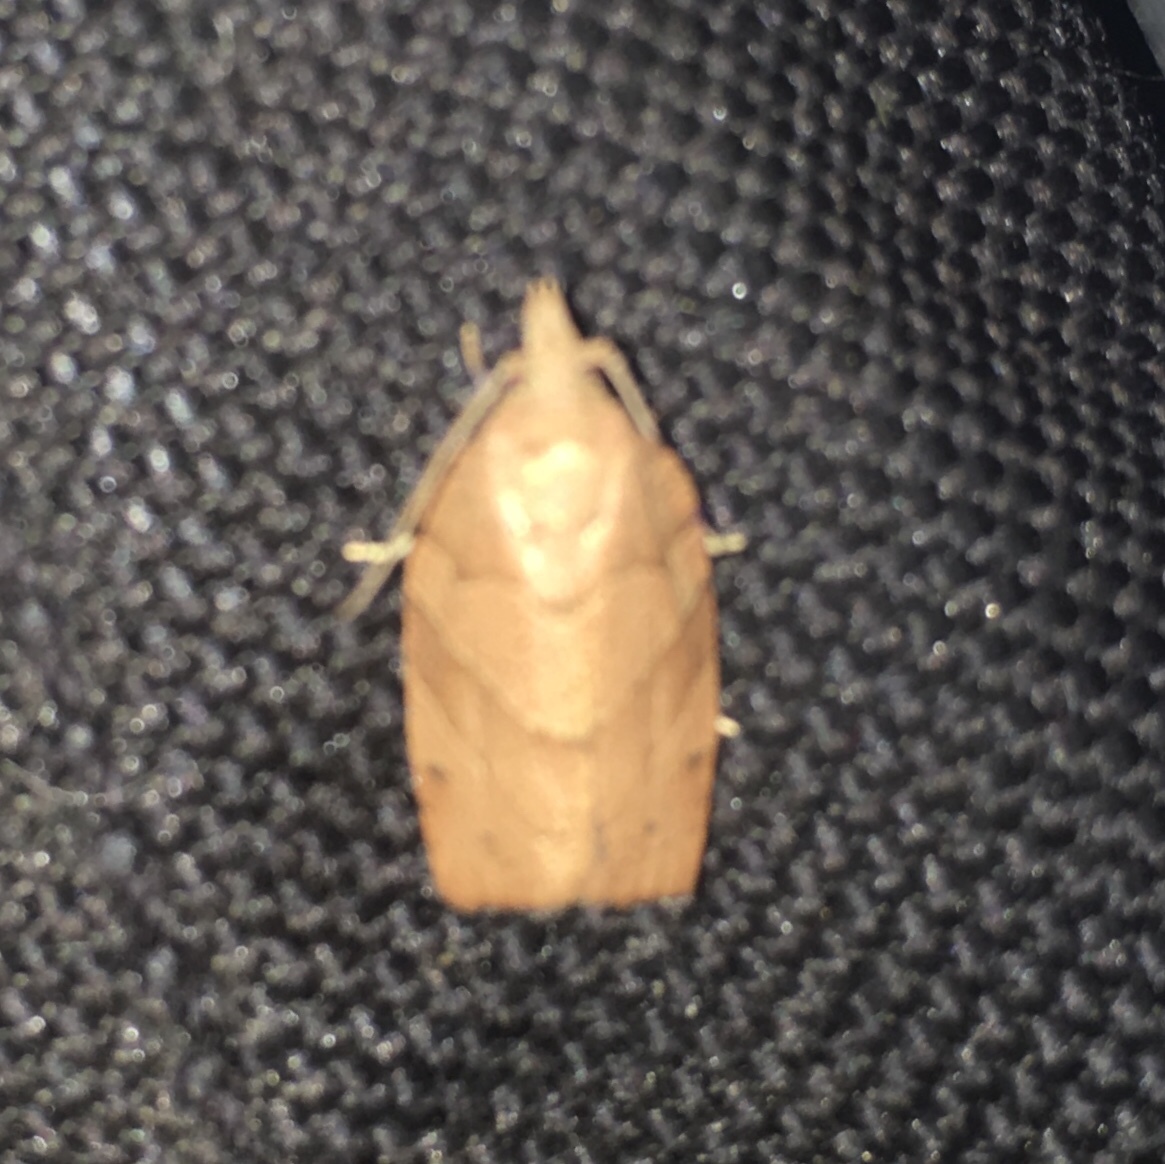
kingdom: Animalia
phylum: Arthropoda
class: Insecta
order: Lepidoptera
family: Tortricidae
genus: Pandemis
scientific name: Pandemis lamprosana
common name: Woodgrain leafroller moth
